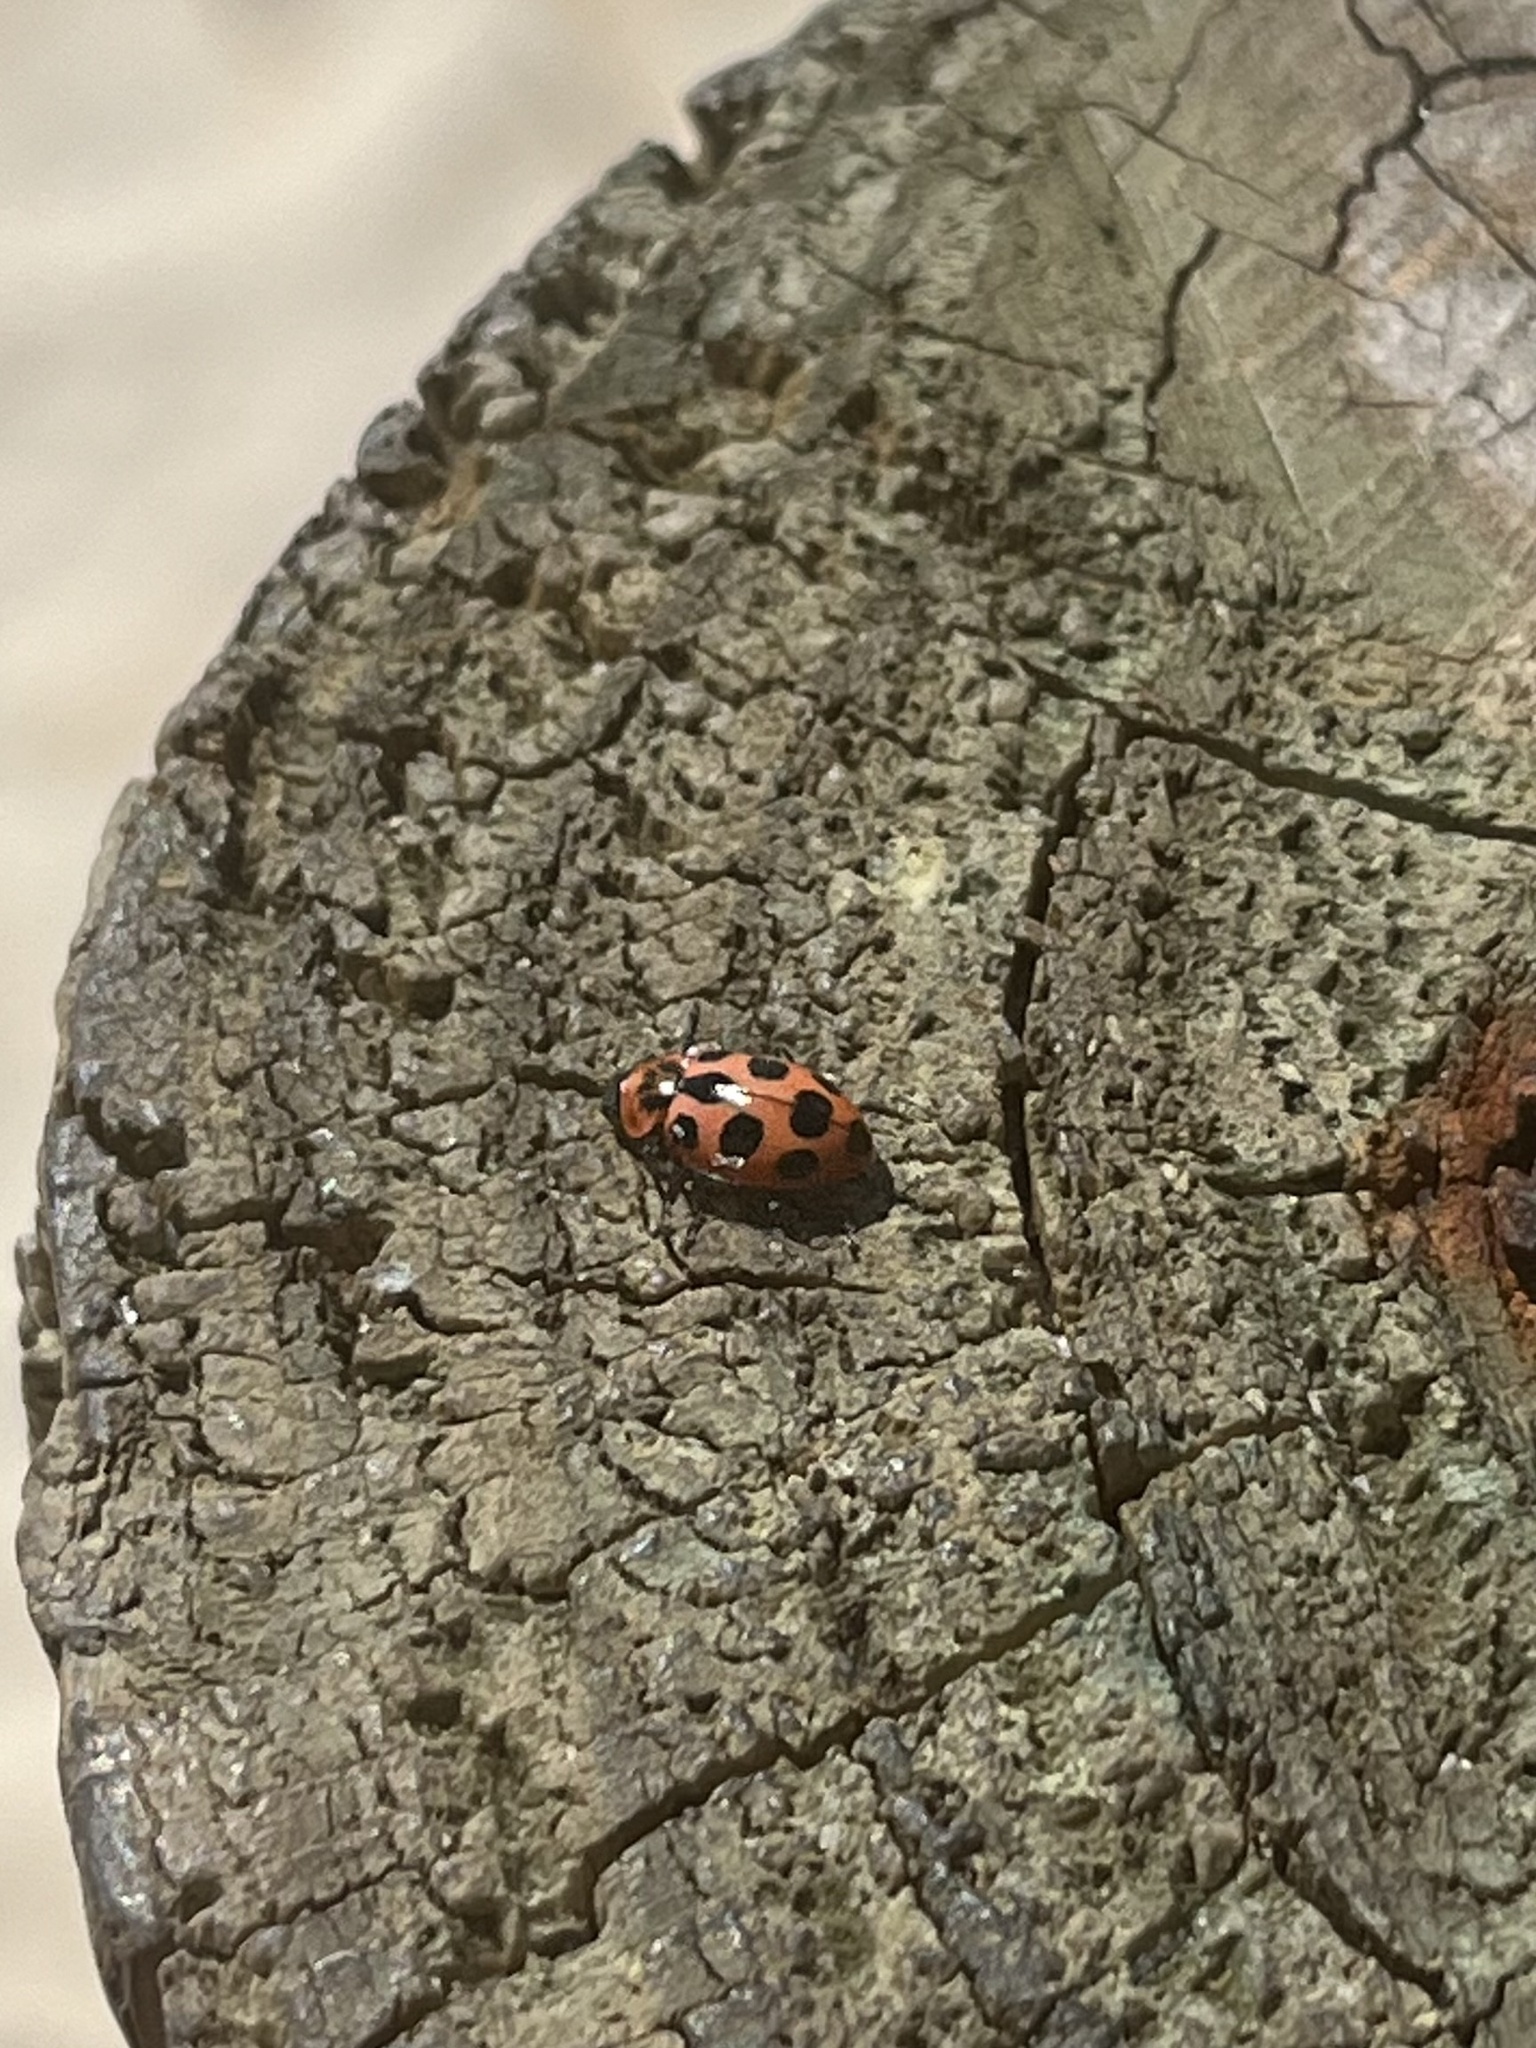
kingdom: Animalia
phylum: Arthropoda
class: Insecta
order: Coleoptera
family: Coccinellidae
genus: Naemia
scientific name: Naemia seriata
